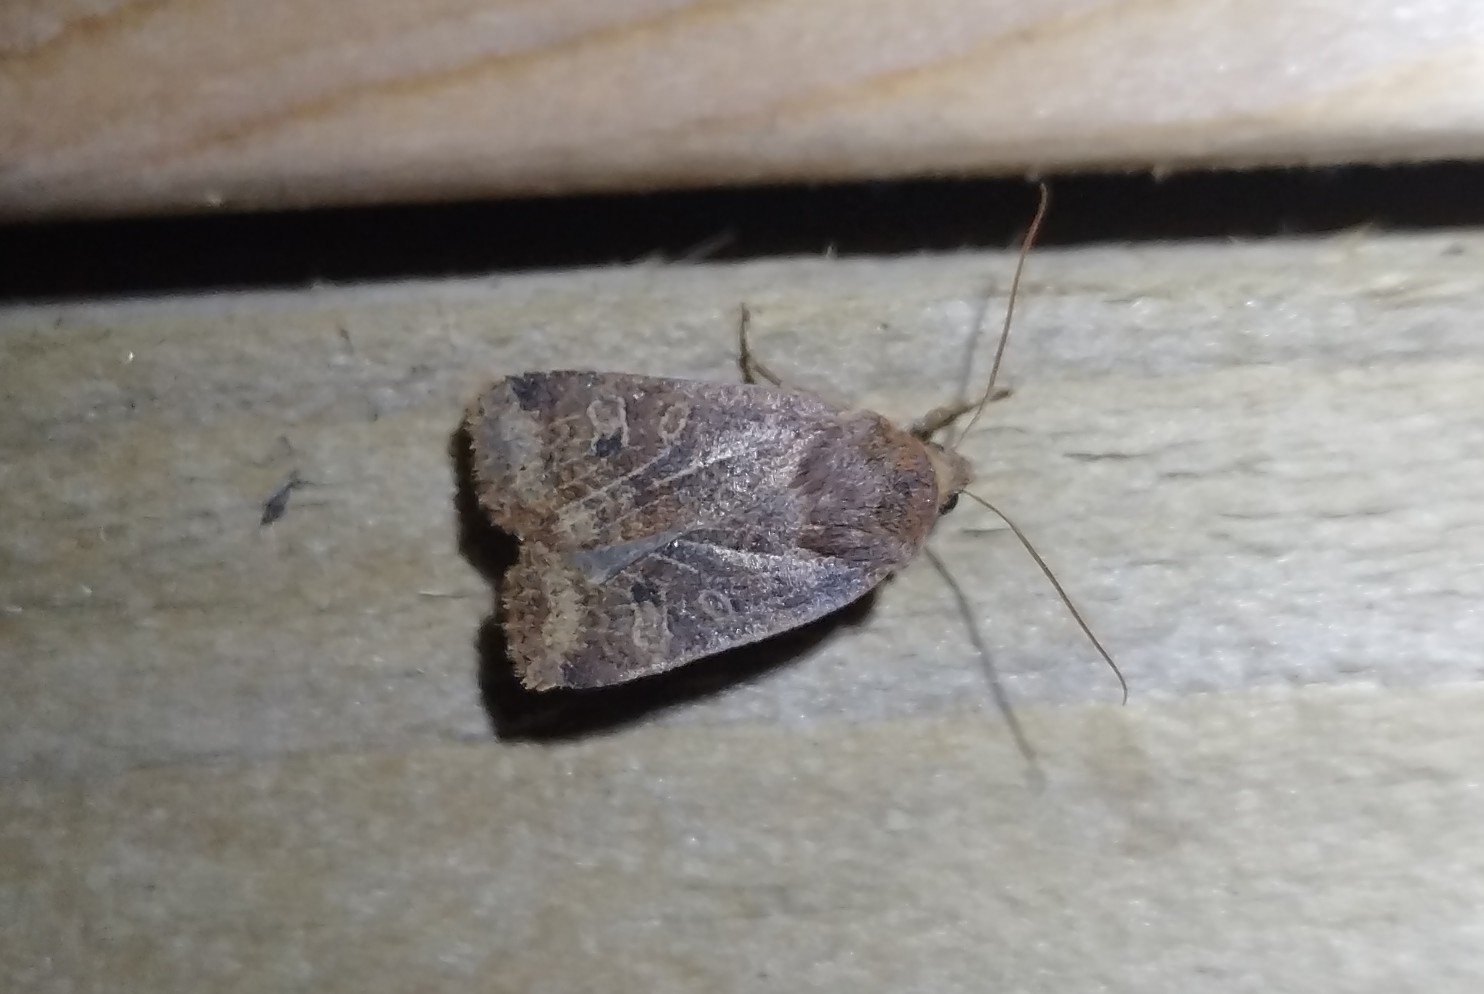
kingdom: Animalia
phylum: Arthropoda
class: Insecta
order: Lepidoptera
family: Noctuidae
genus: Conistra
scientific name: Conistra vaccinii
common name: Chestnut
